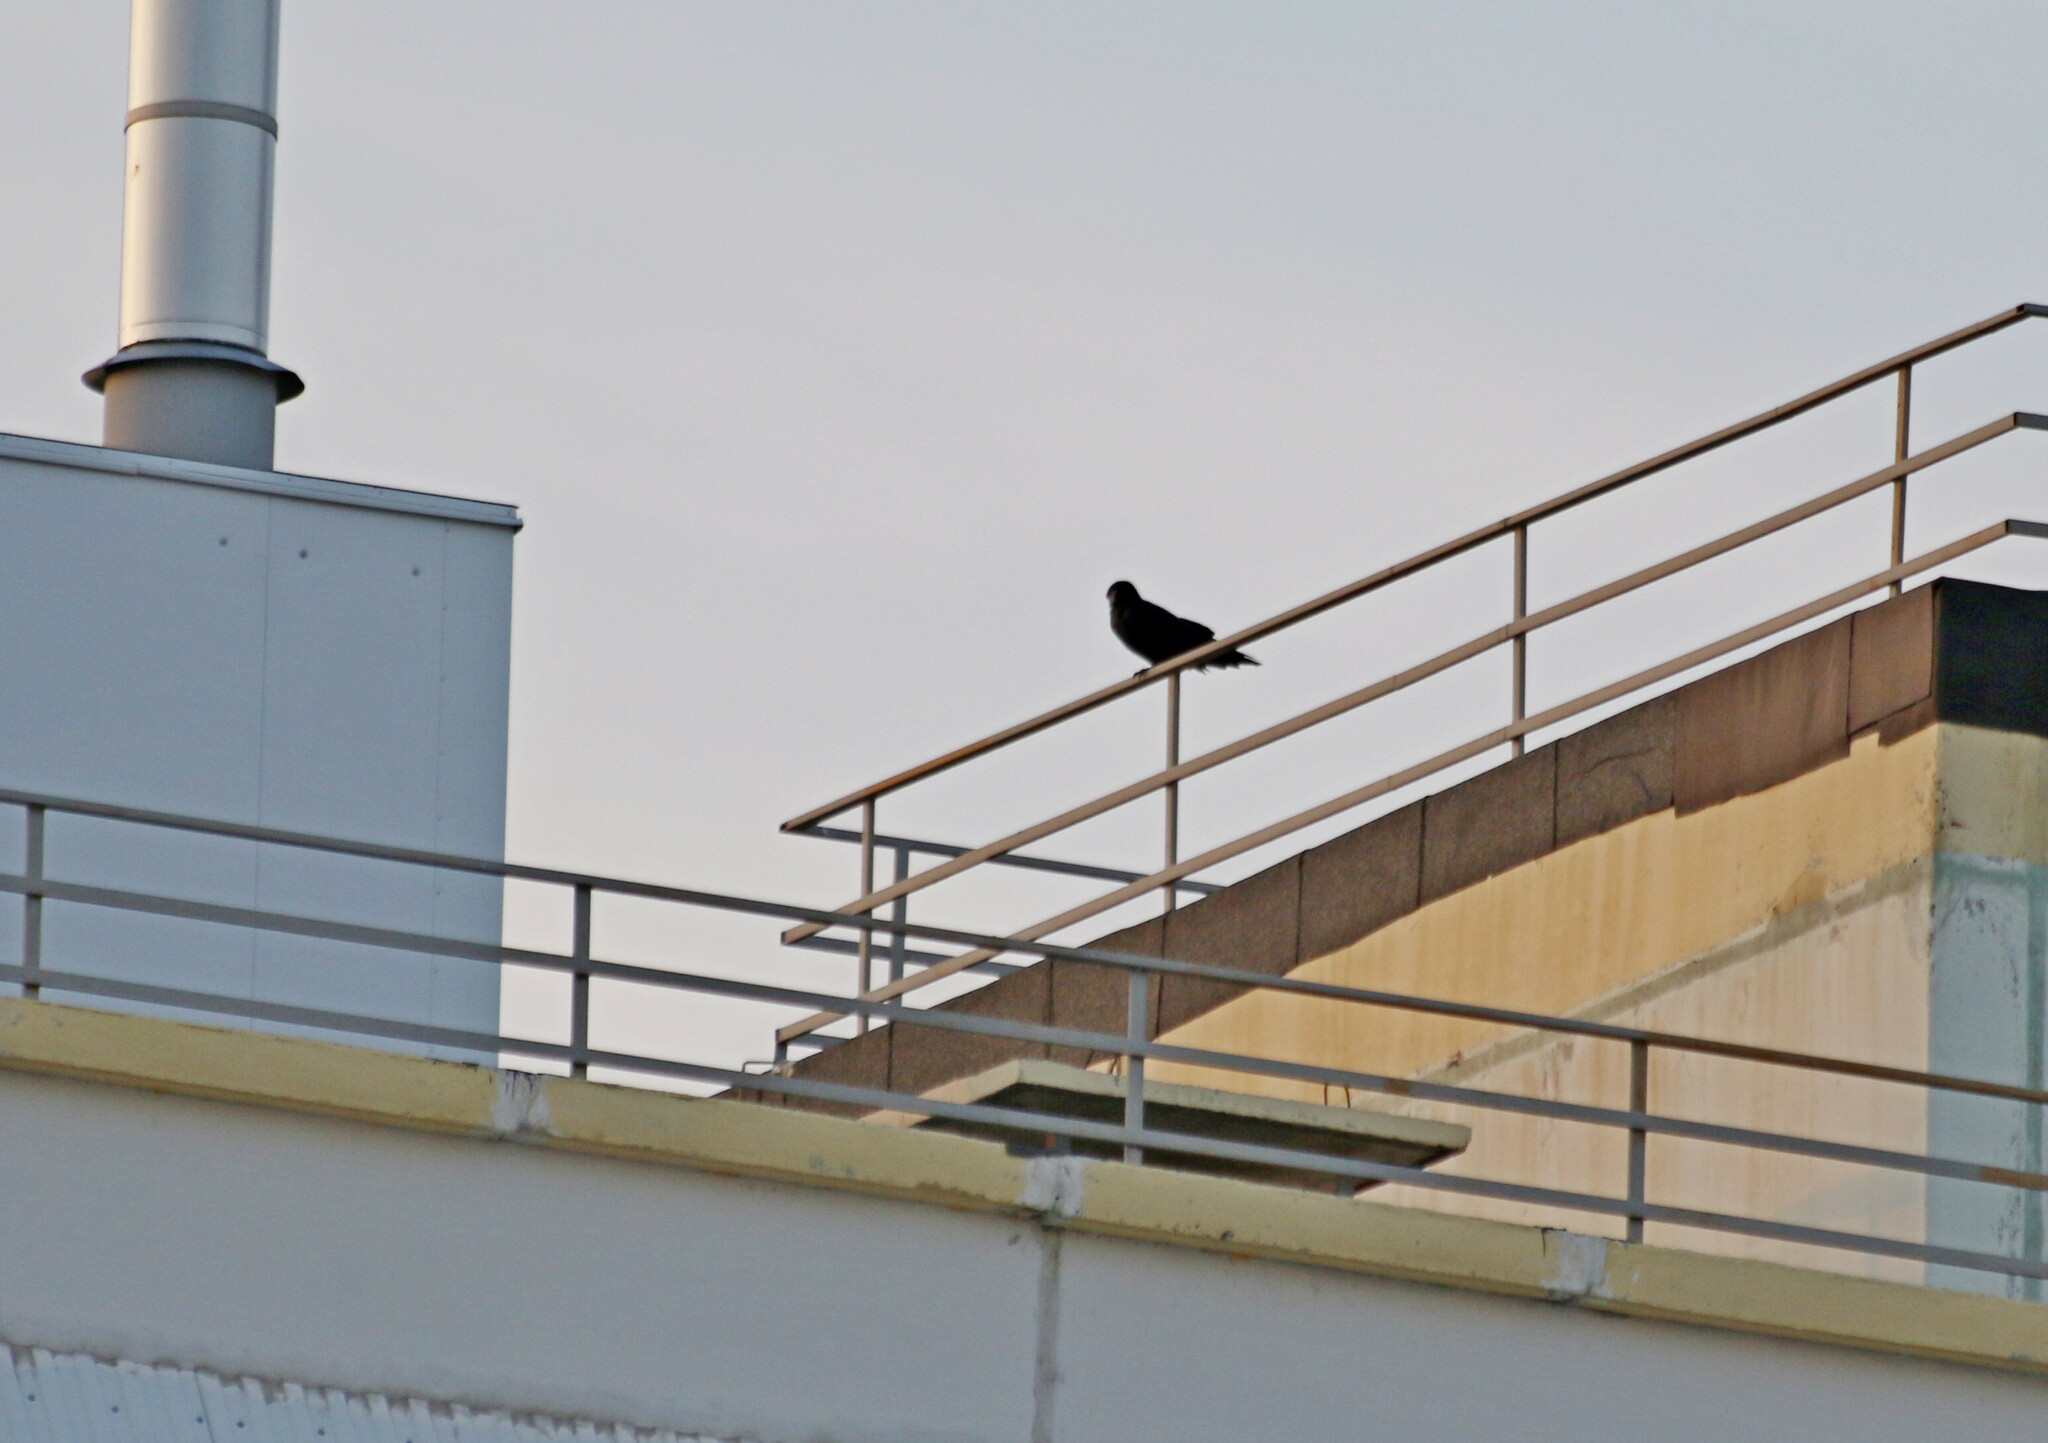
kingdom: Animalia
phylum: Chordata
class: Aves
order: Passeriformes
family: Corvidae
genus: Corvus
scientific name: Corvus cornix
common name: Hooded crow
